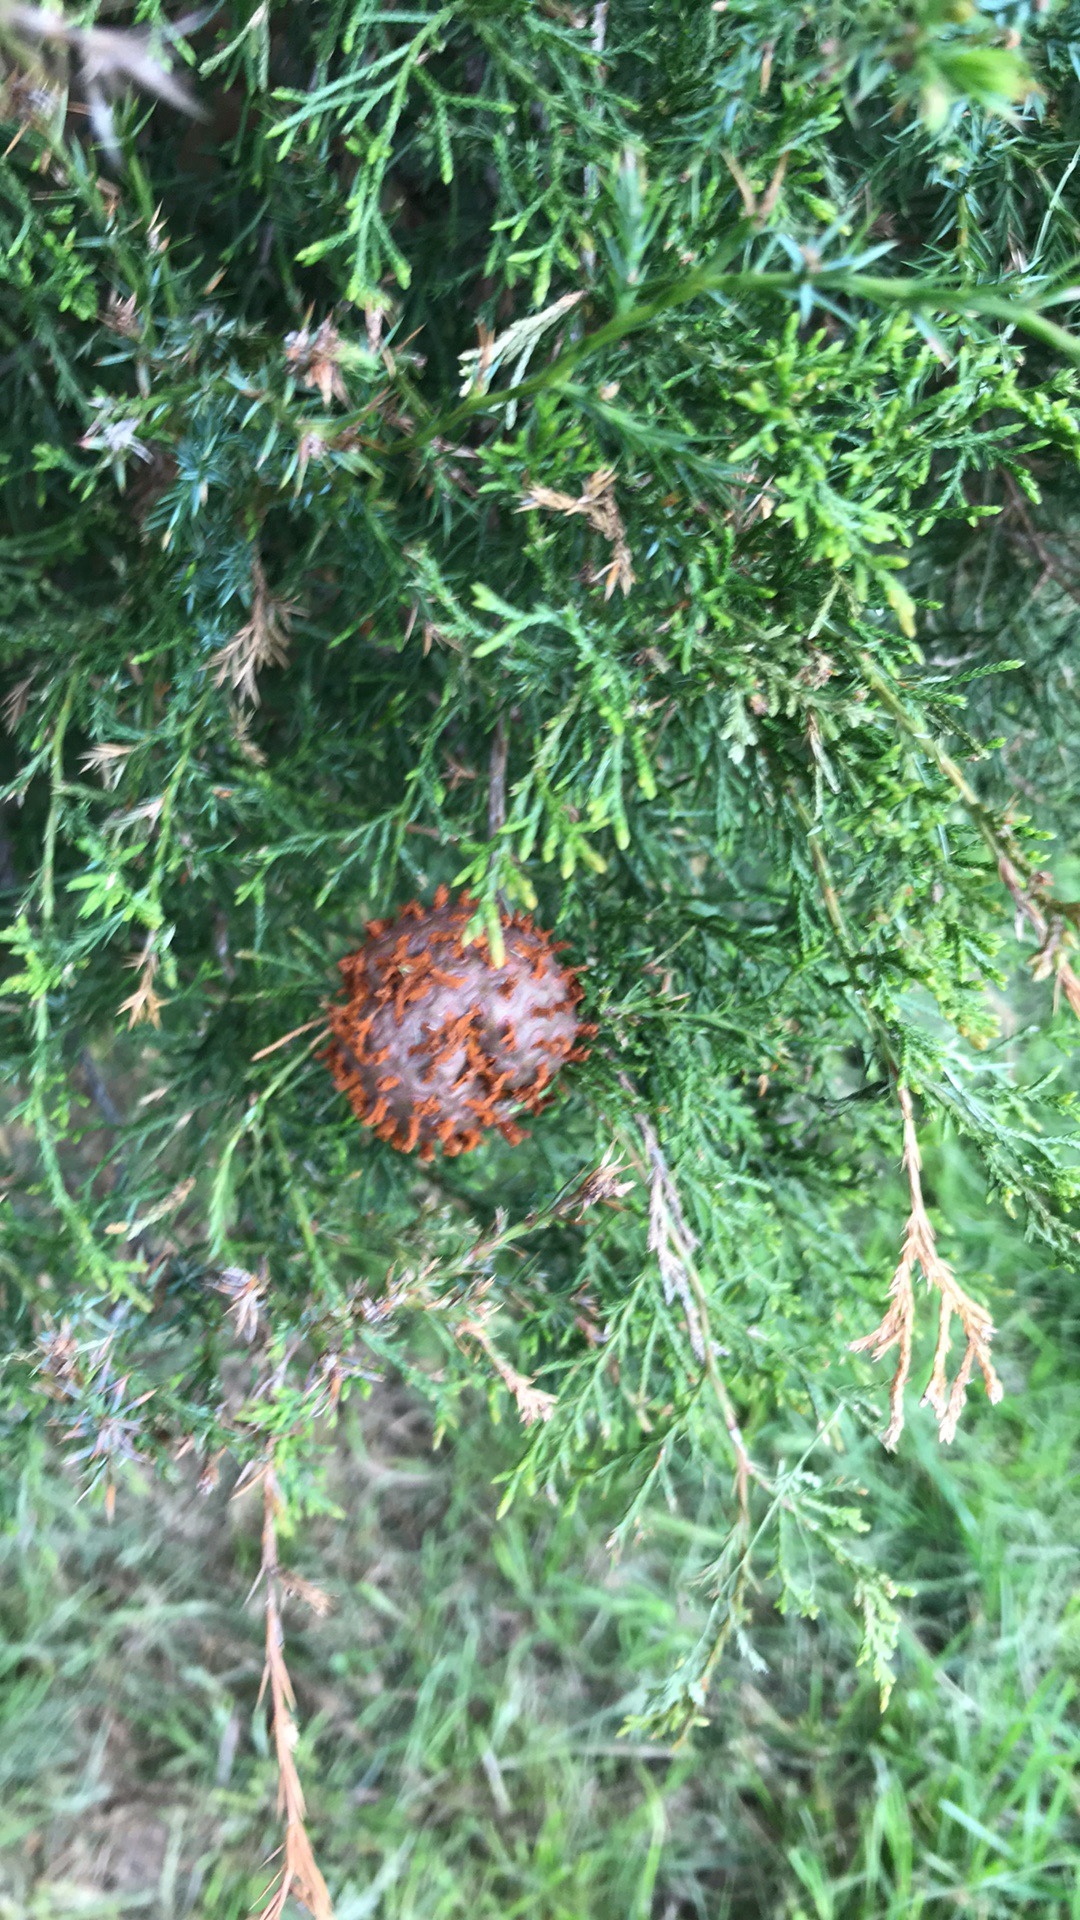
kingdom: Fungi
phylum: Basidiomycota
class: Pucciniomycetes
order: Pucciniales
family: Gymnosporangiaceae
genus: Gymnosporangium
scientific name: Gymnosporangium juniperi-virginianae
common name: Juniper-apple rust
